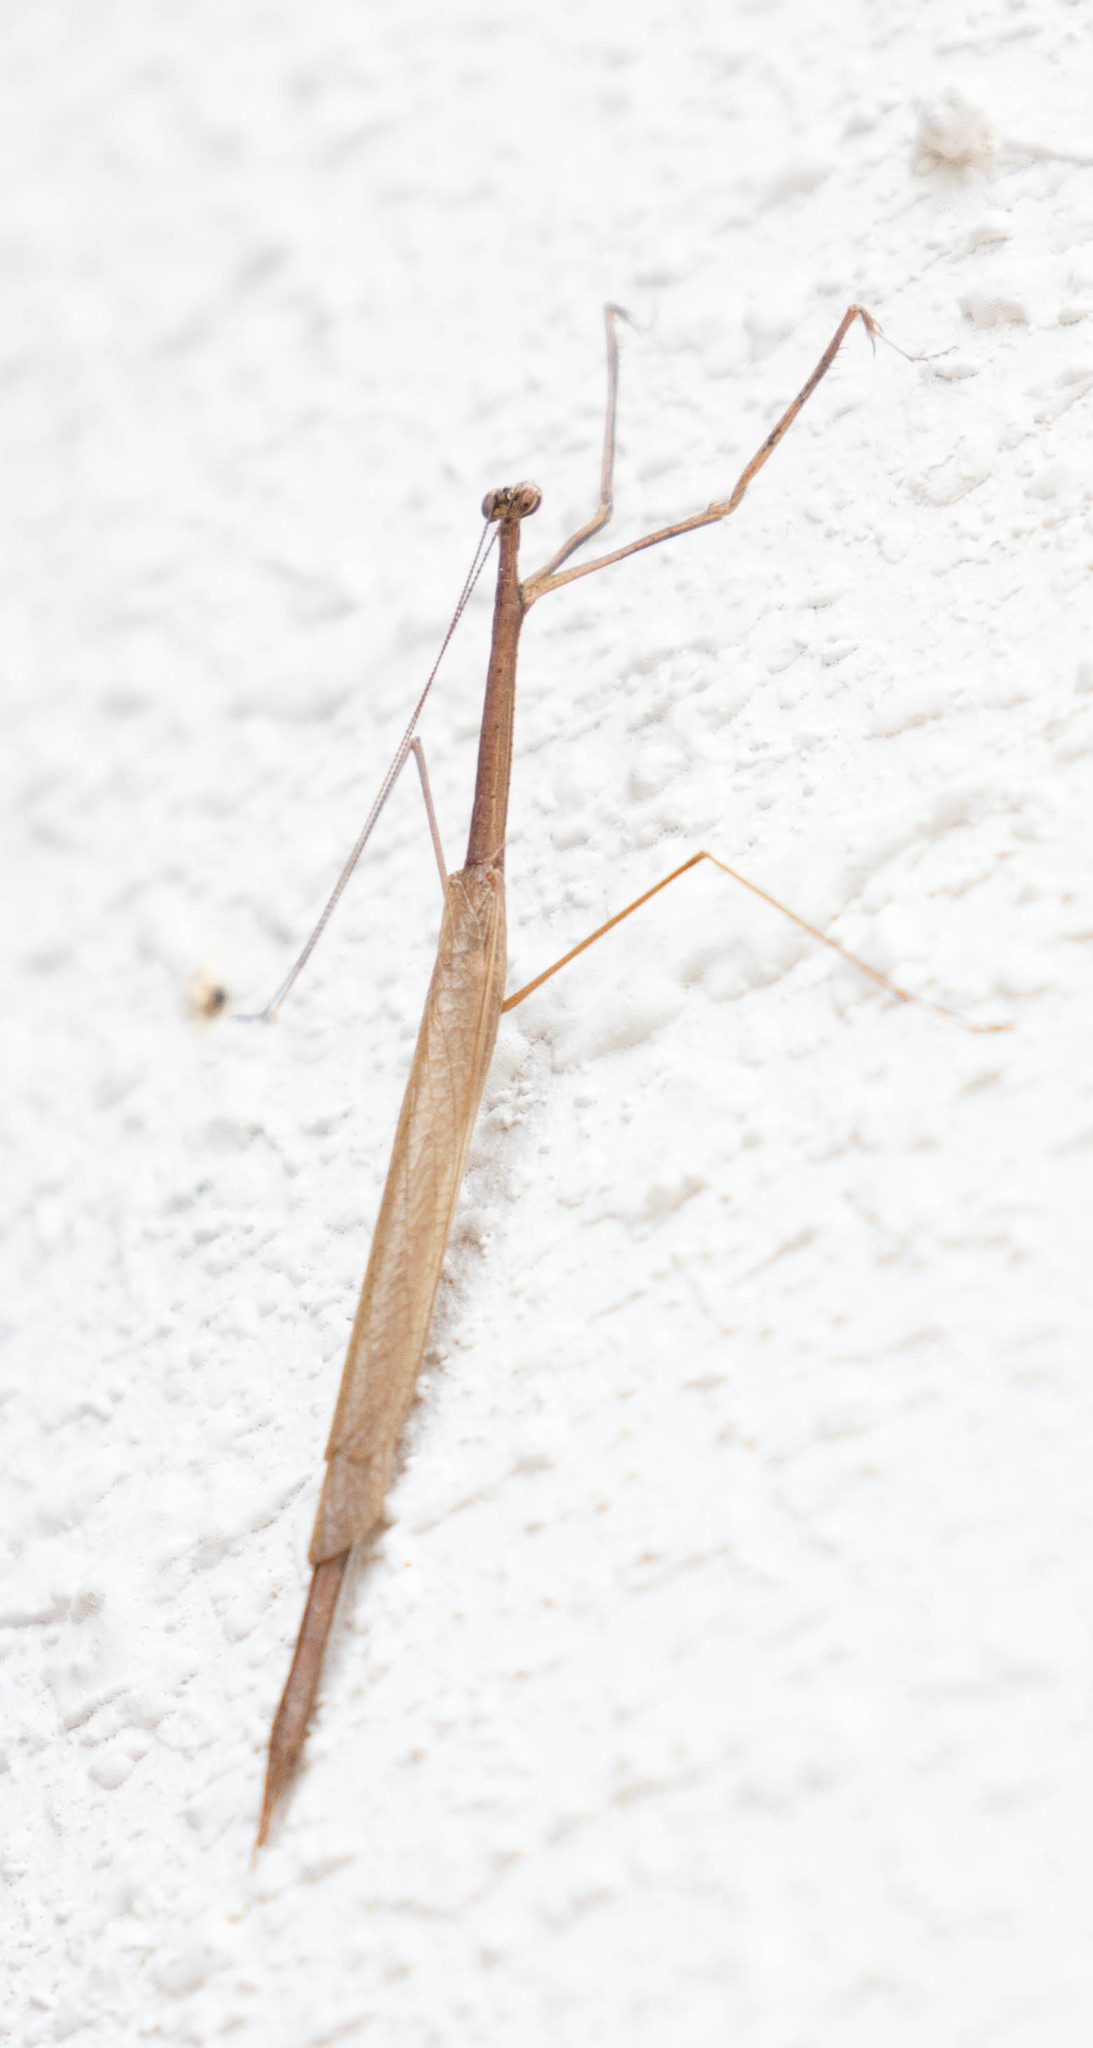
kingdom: Animalia
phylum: Arthropoda
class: Insecta
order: Mantodea
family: Thespidae
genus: Thesprotia
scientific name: Thesprotia graminis
